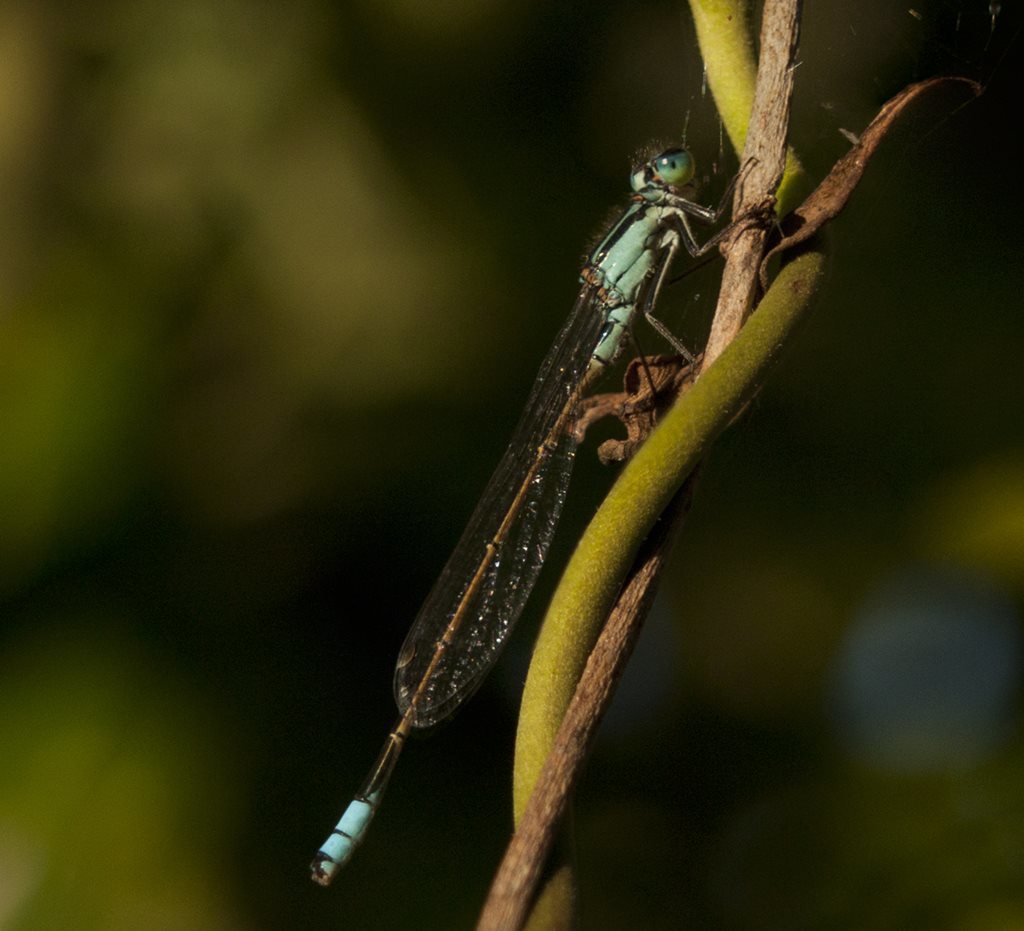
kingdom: Animalia
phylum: Arthropoda
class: Insecta
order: Odonata
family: Coenagrionidae
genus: Ischnura
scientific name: Ischnura heterosticta
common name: Common bluetail
